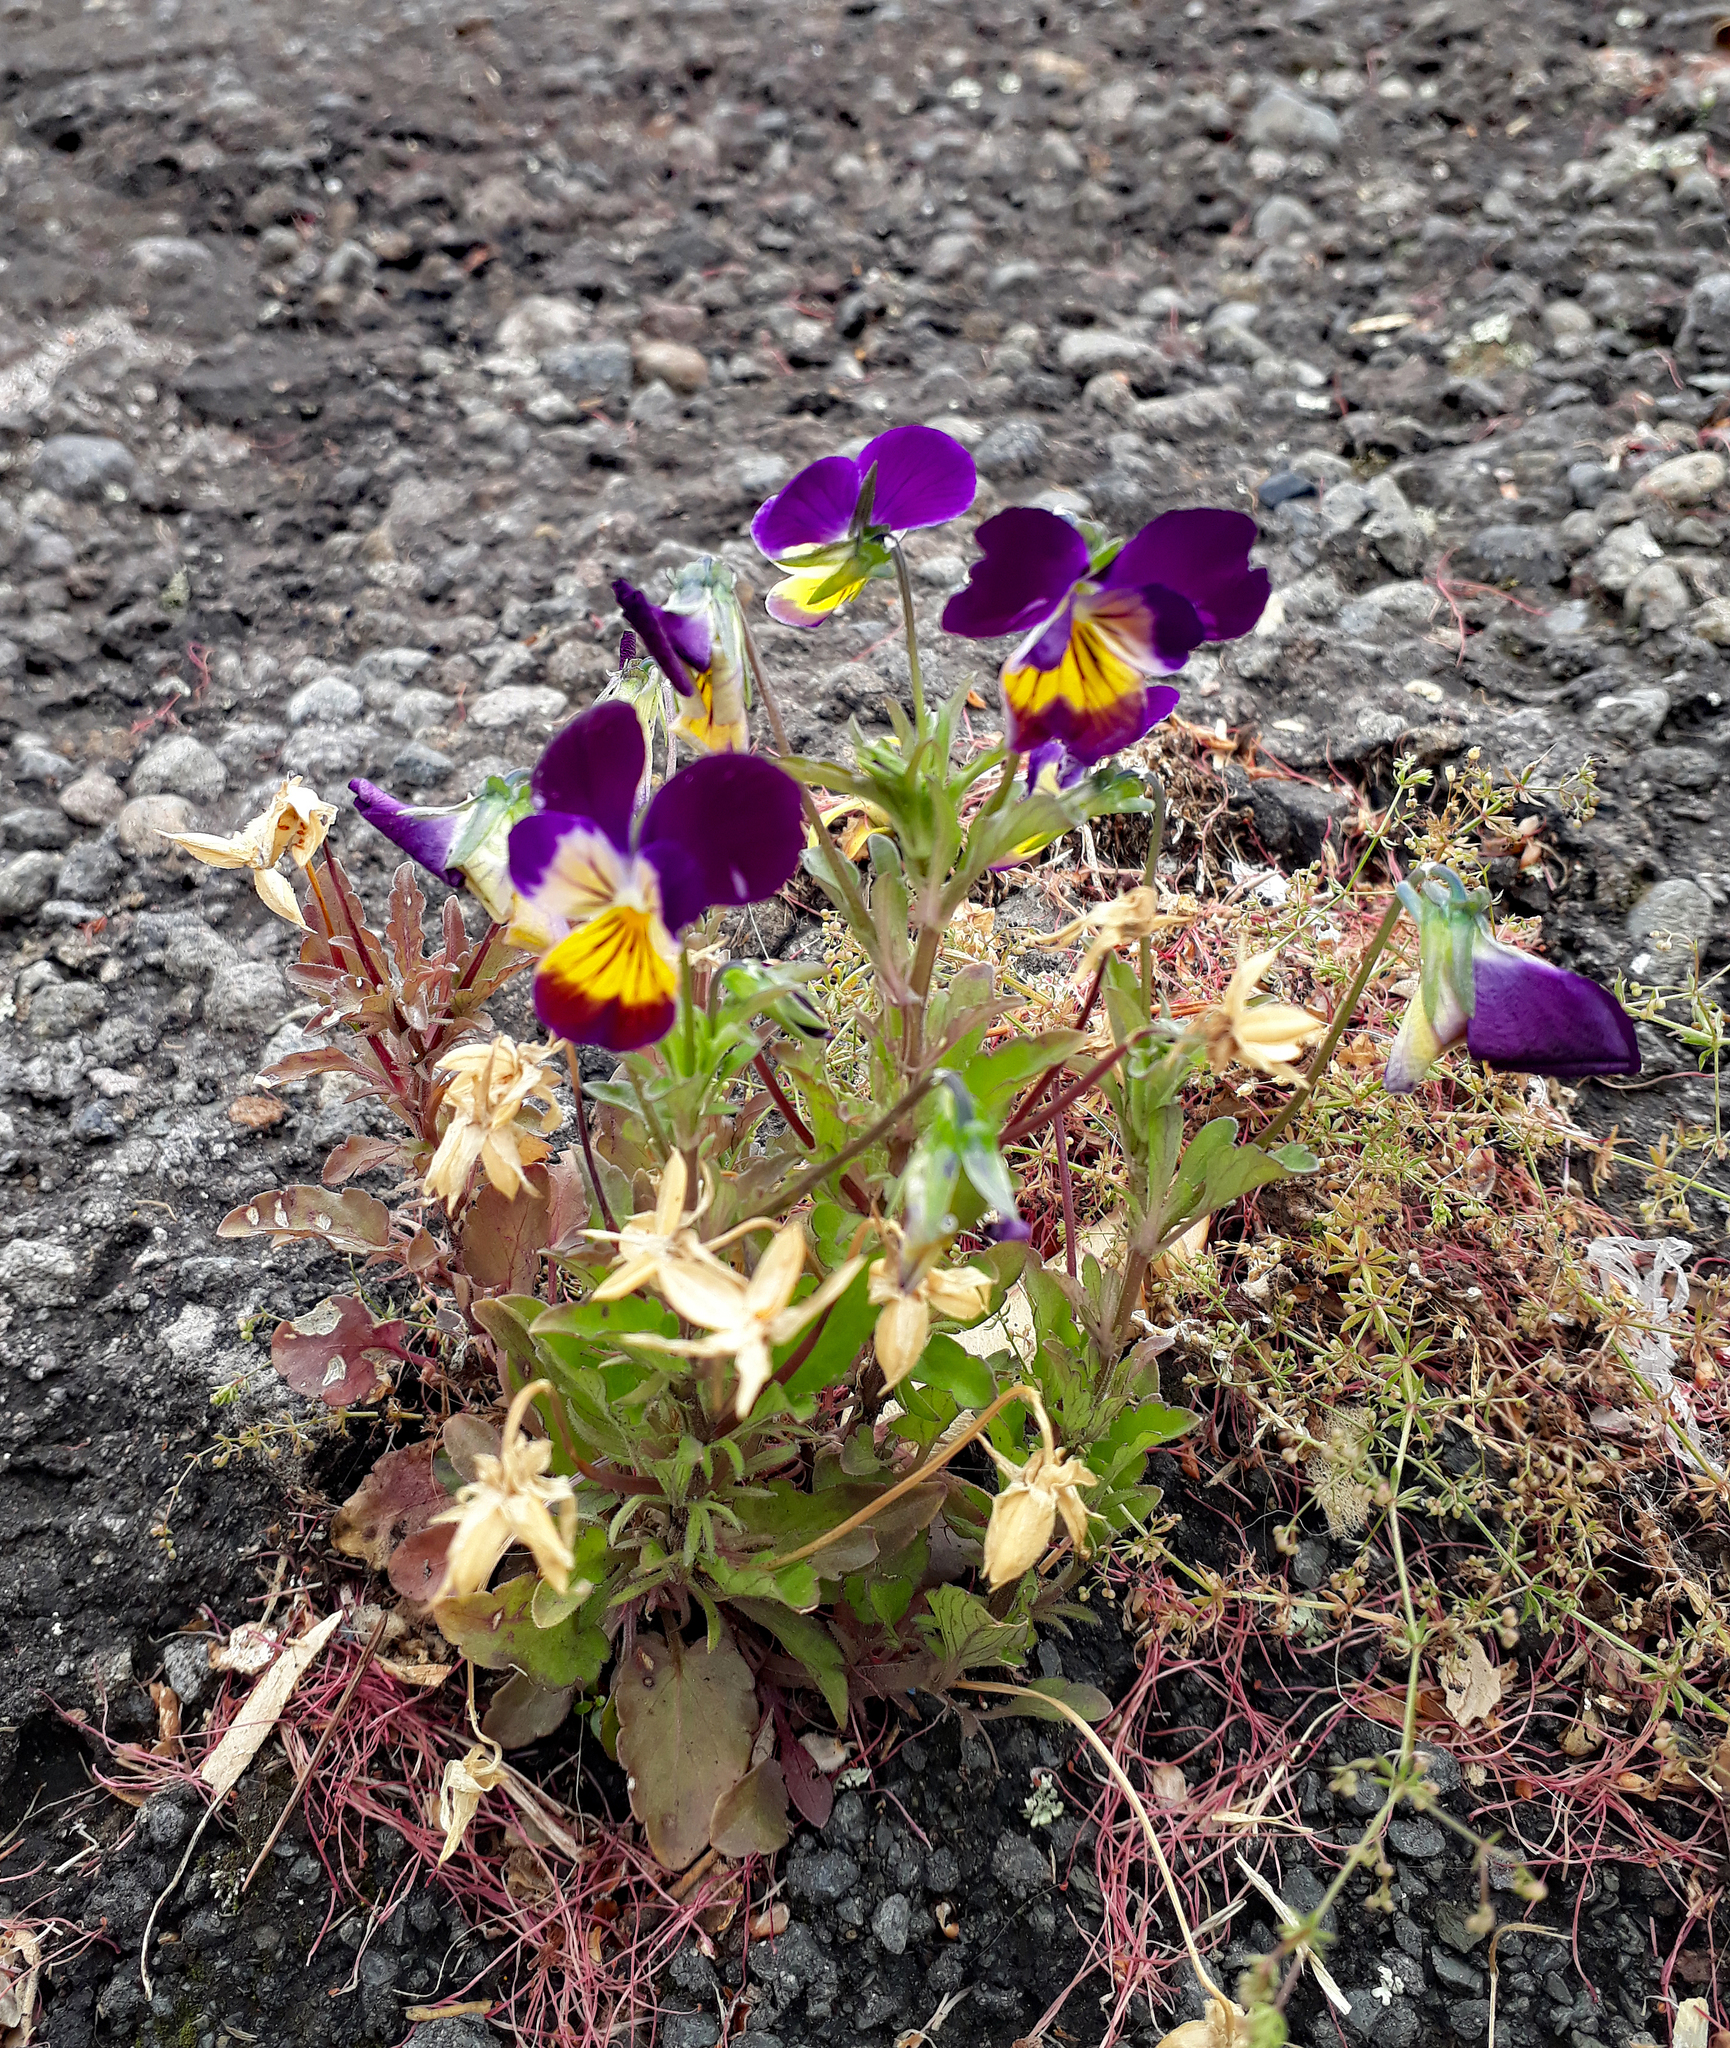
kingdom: Plantae
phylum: Tracheophyta
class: Magnoliopsida
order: Malpighiales
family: Violaceae
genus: Viola
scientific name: Viola williamsii
